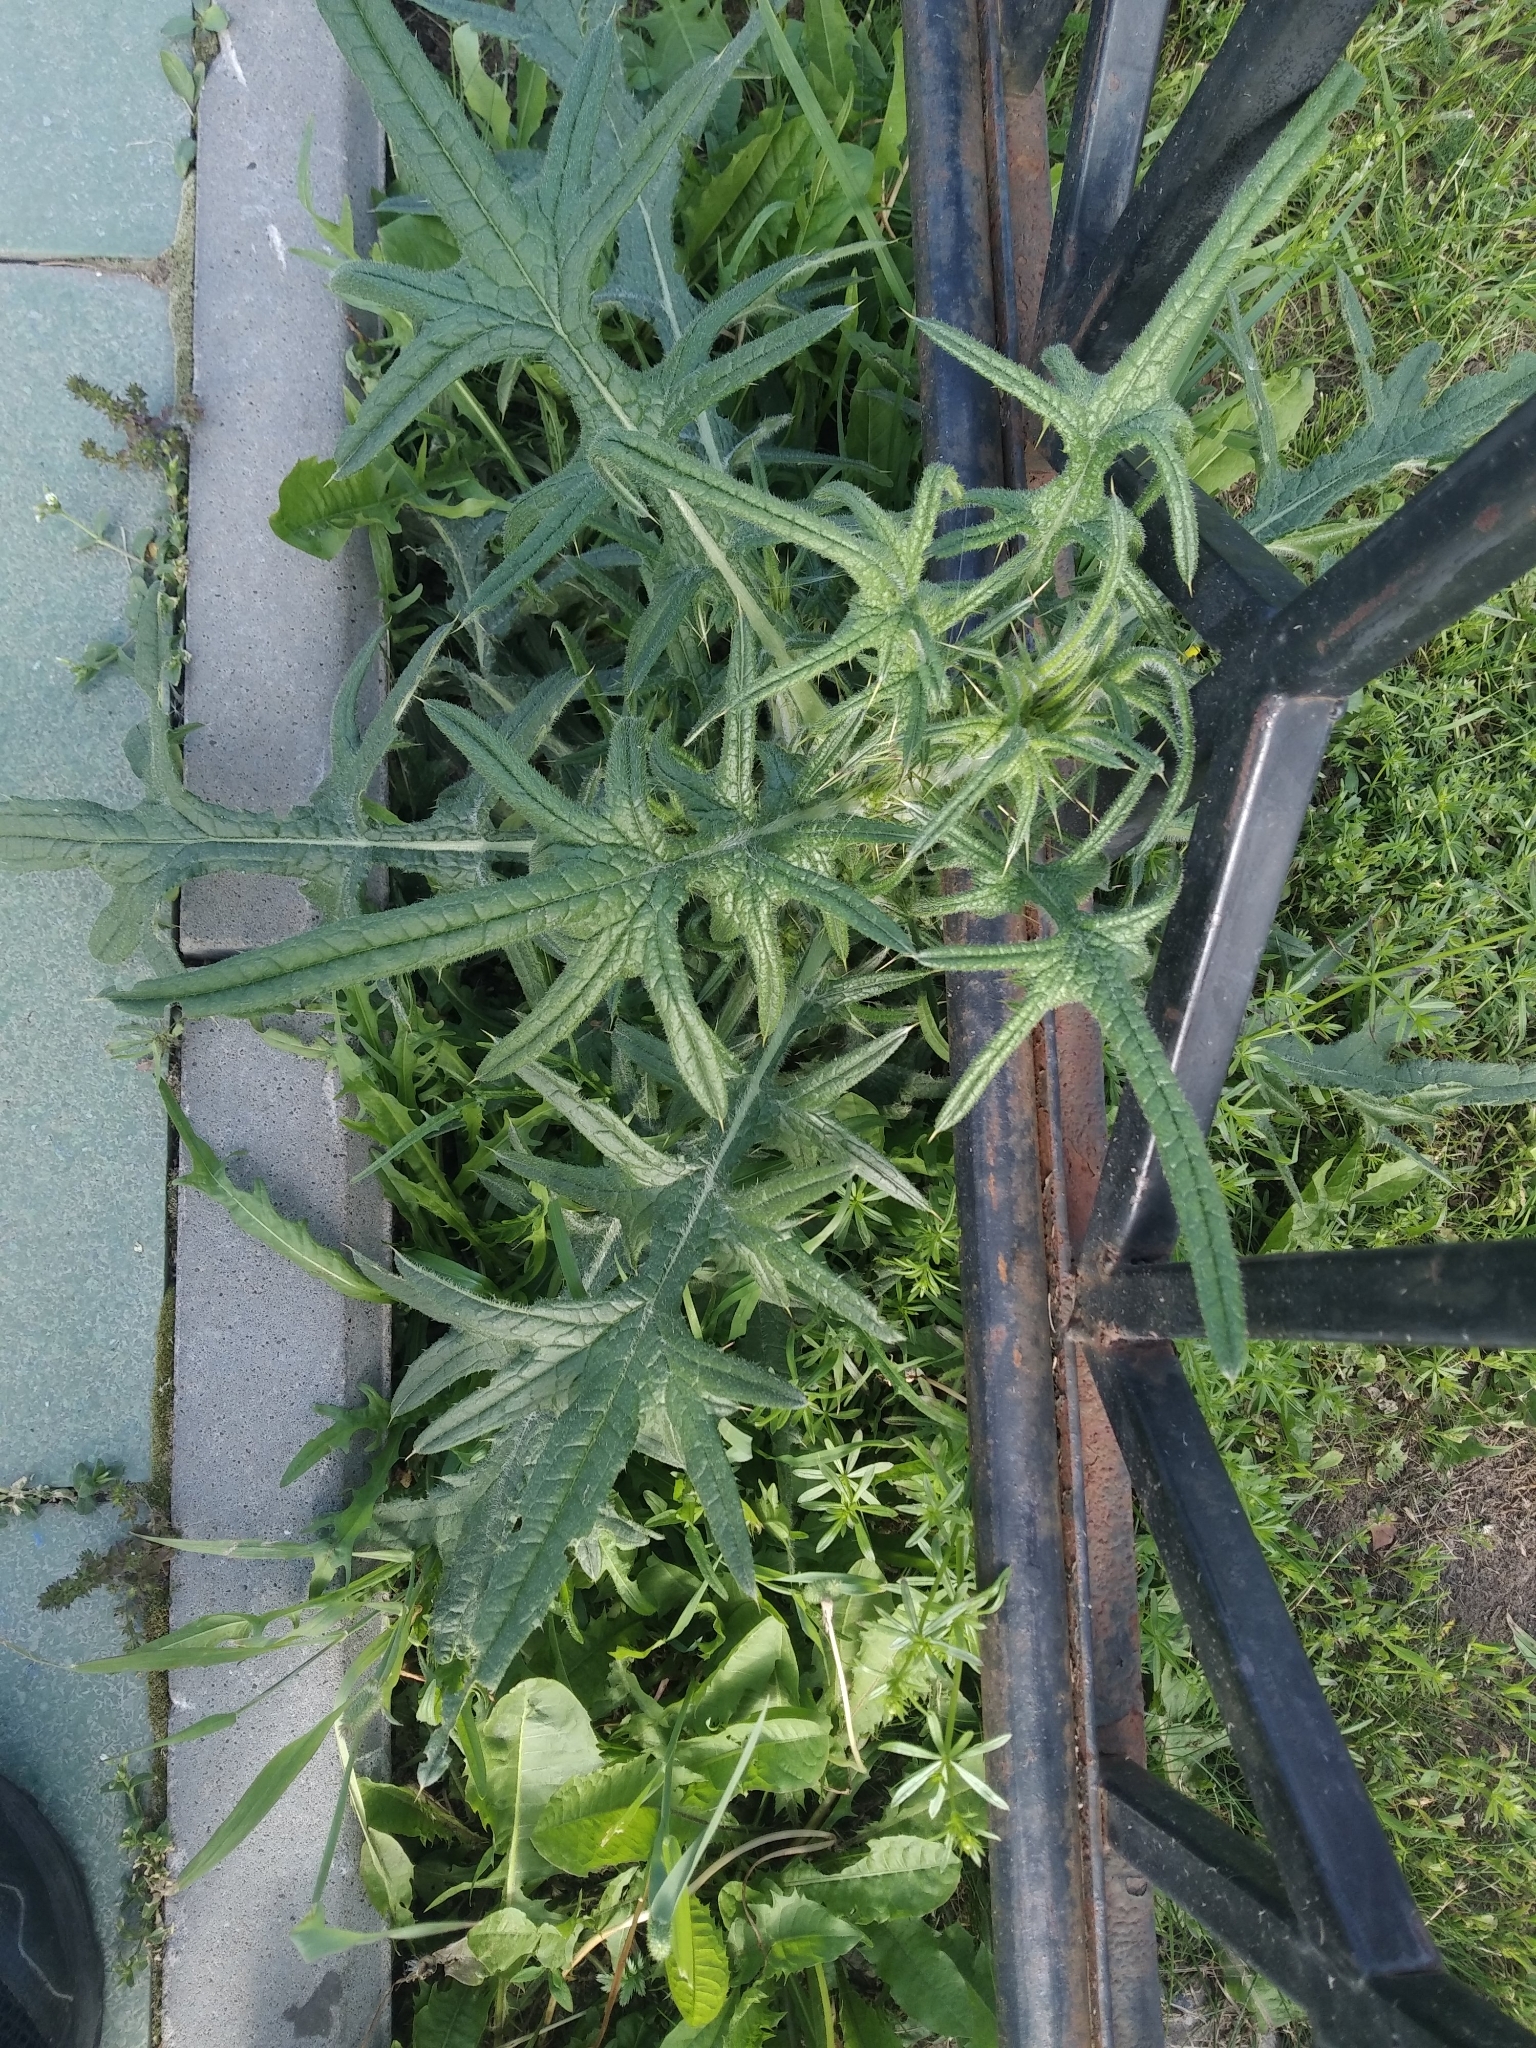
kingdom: Plantae
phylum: Tracheophyta
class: Magnoliopsida
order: Asterales
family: Asteraceae
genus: Cirsium
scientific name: Cirsium vulgare
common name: Bull thistle
